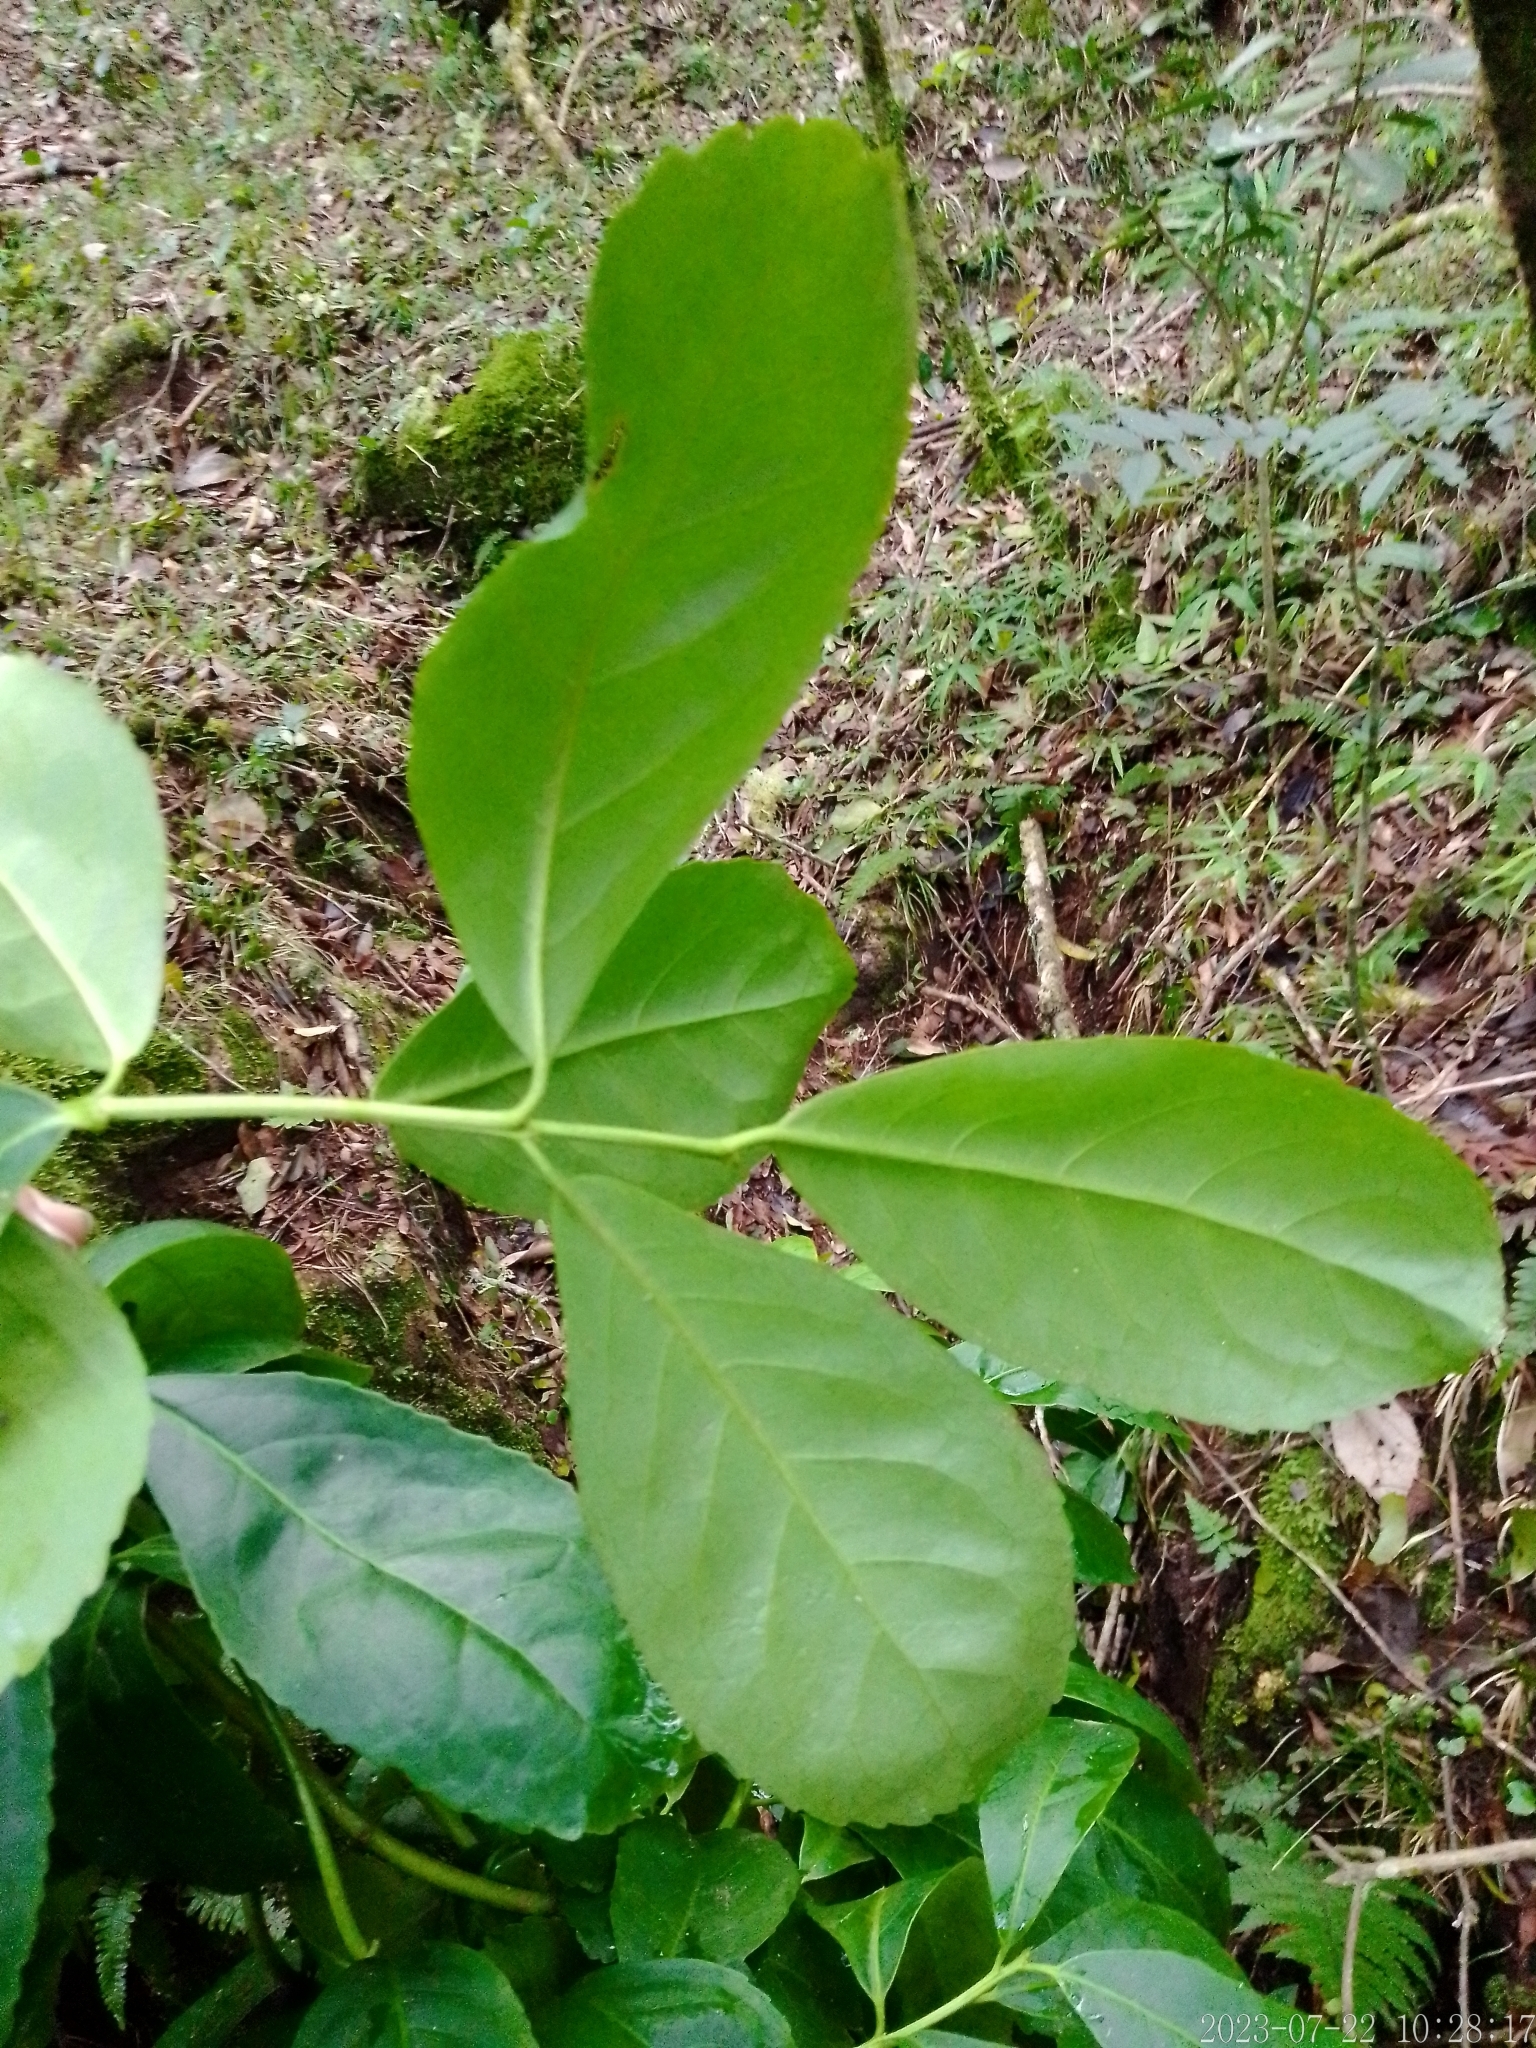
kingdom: Plantae
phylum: Tracheophyta
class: Magnoliopsida
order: Aquifoliales
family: Aquifoliaceae
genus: Ilex
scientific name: Ilex paraguariensis
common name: Paraguay tea
